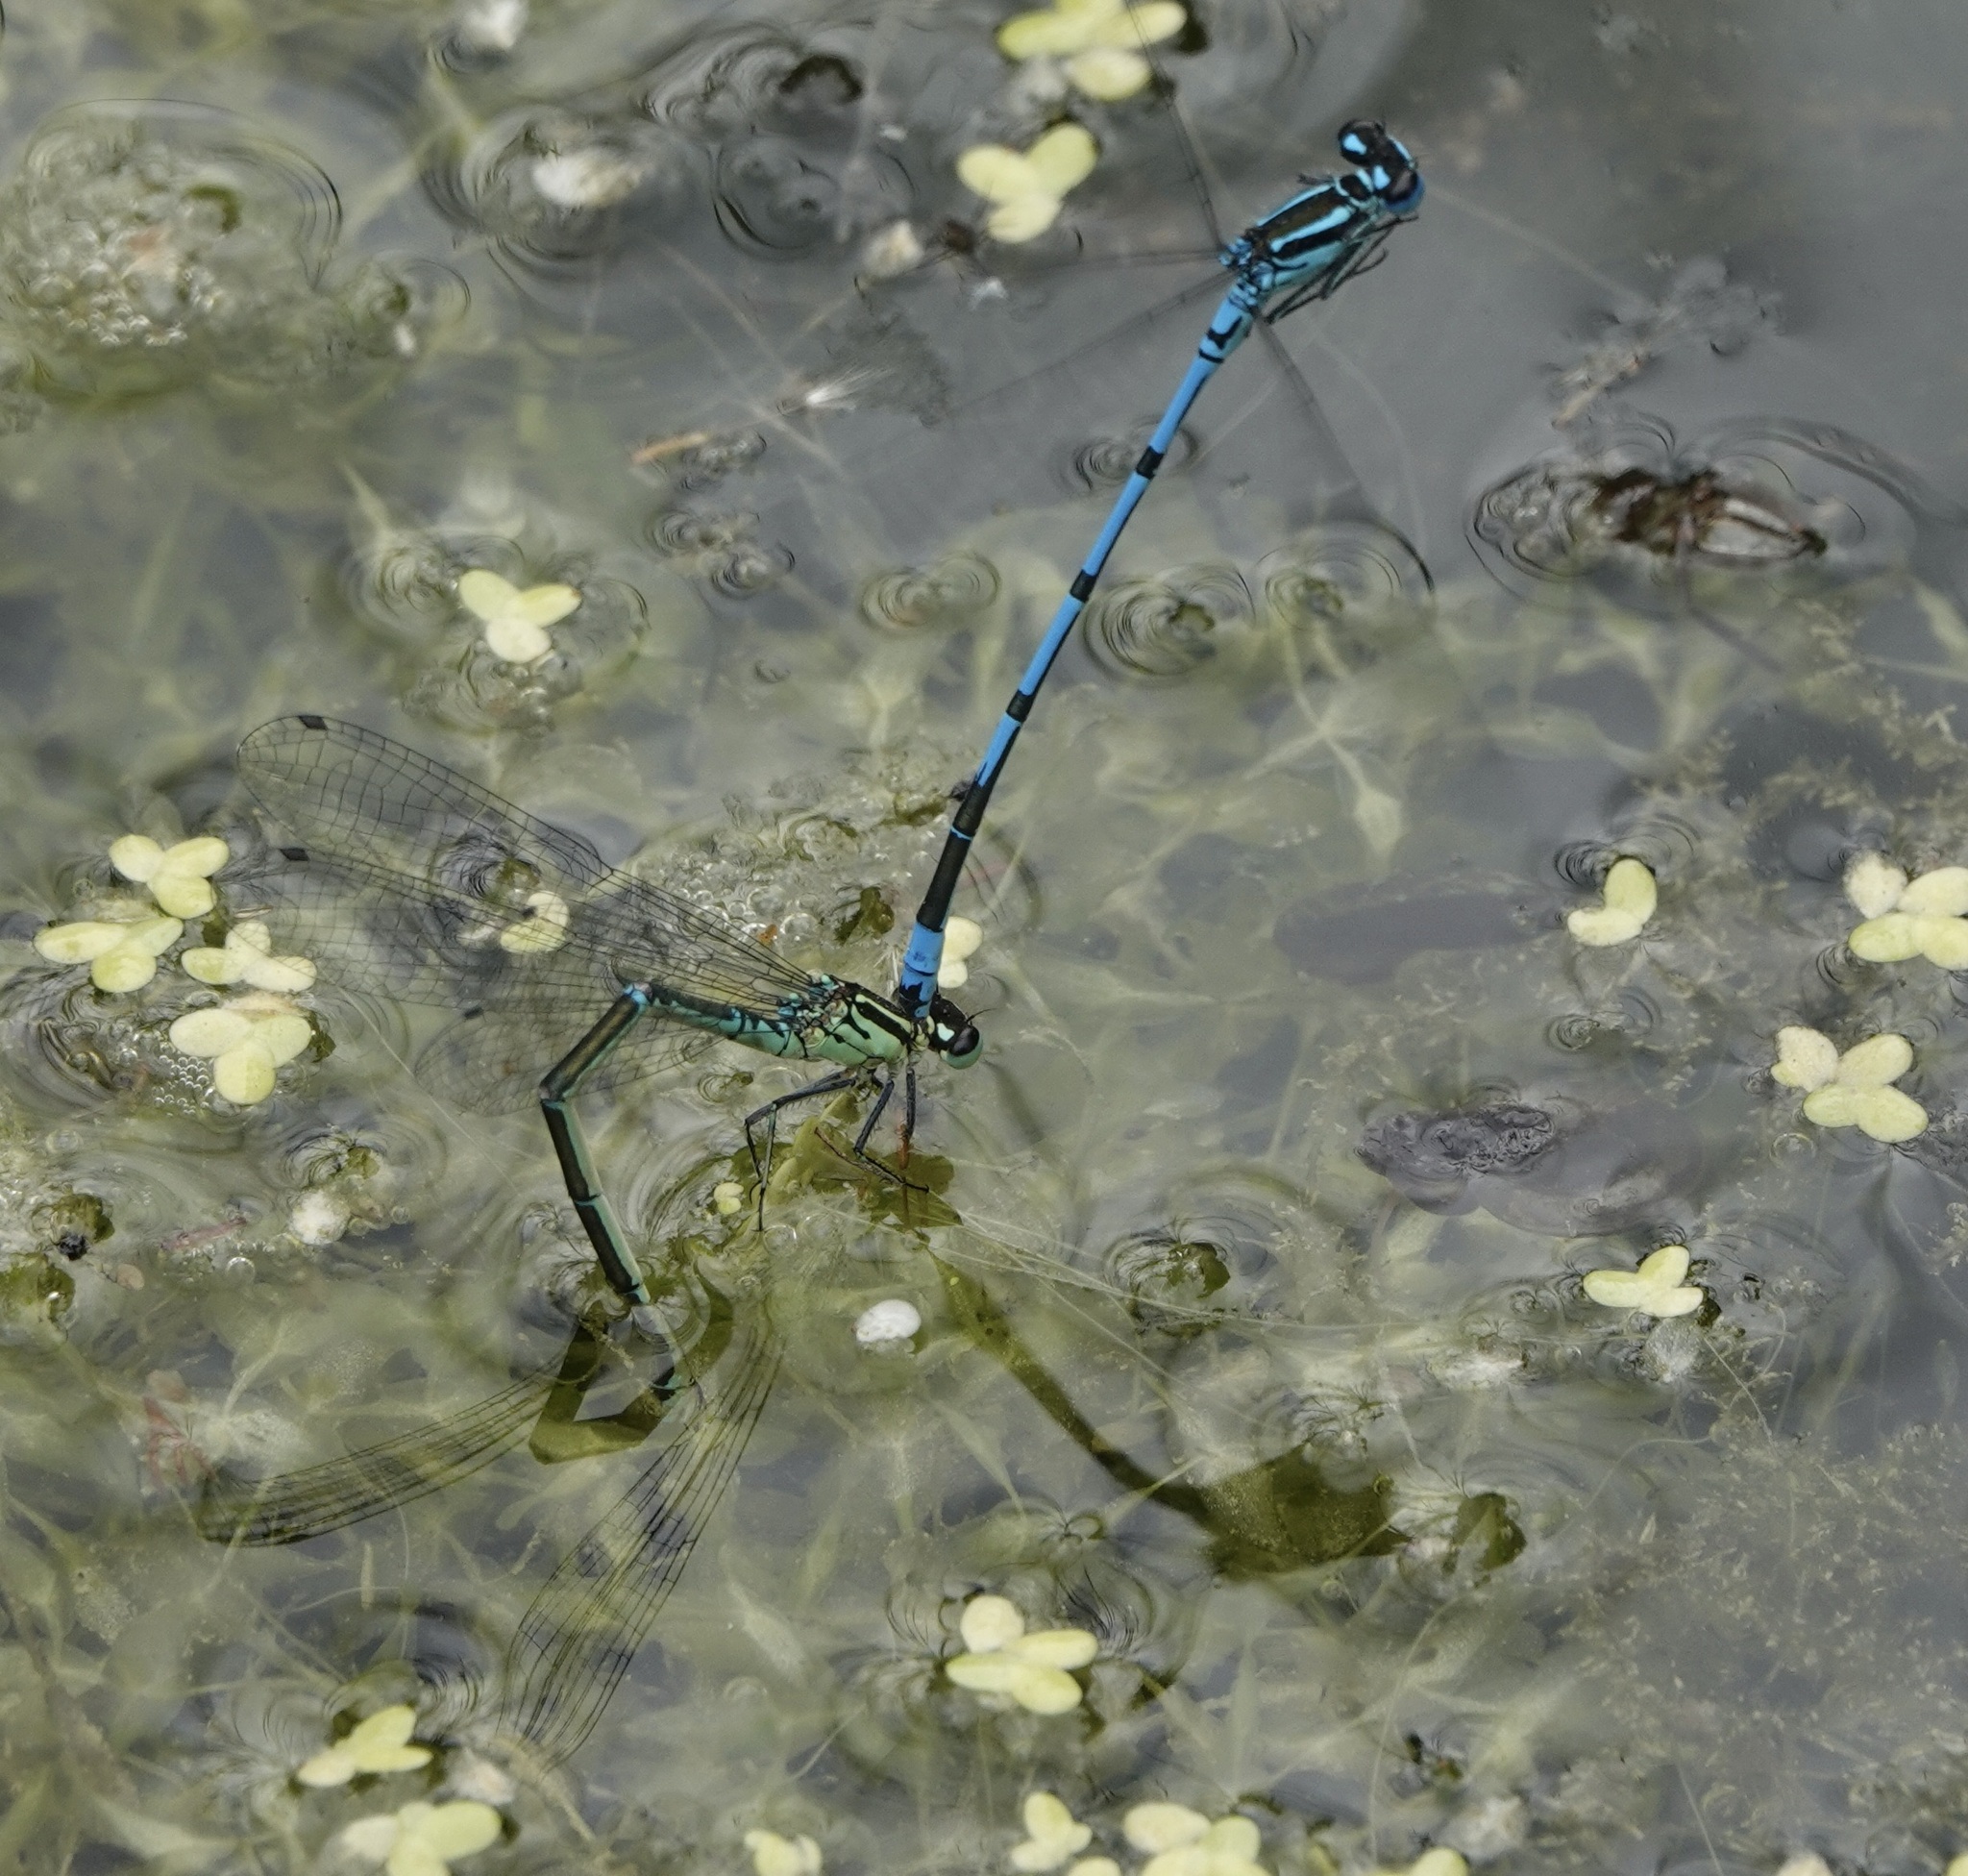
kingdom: Animalia
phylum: Arthropoda
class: Insecta
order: Odonata
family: Coenagrionidae
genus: Coenagrion
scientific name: Coenagrion puella
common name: Azure damselfly
